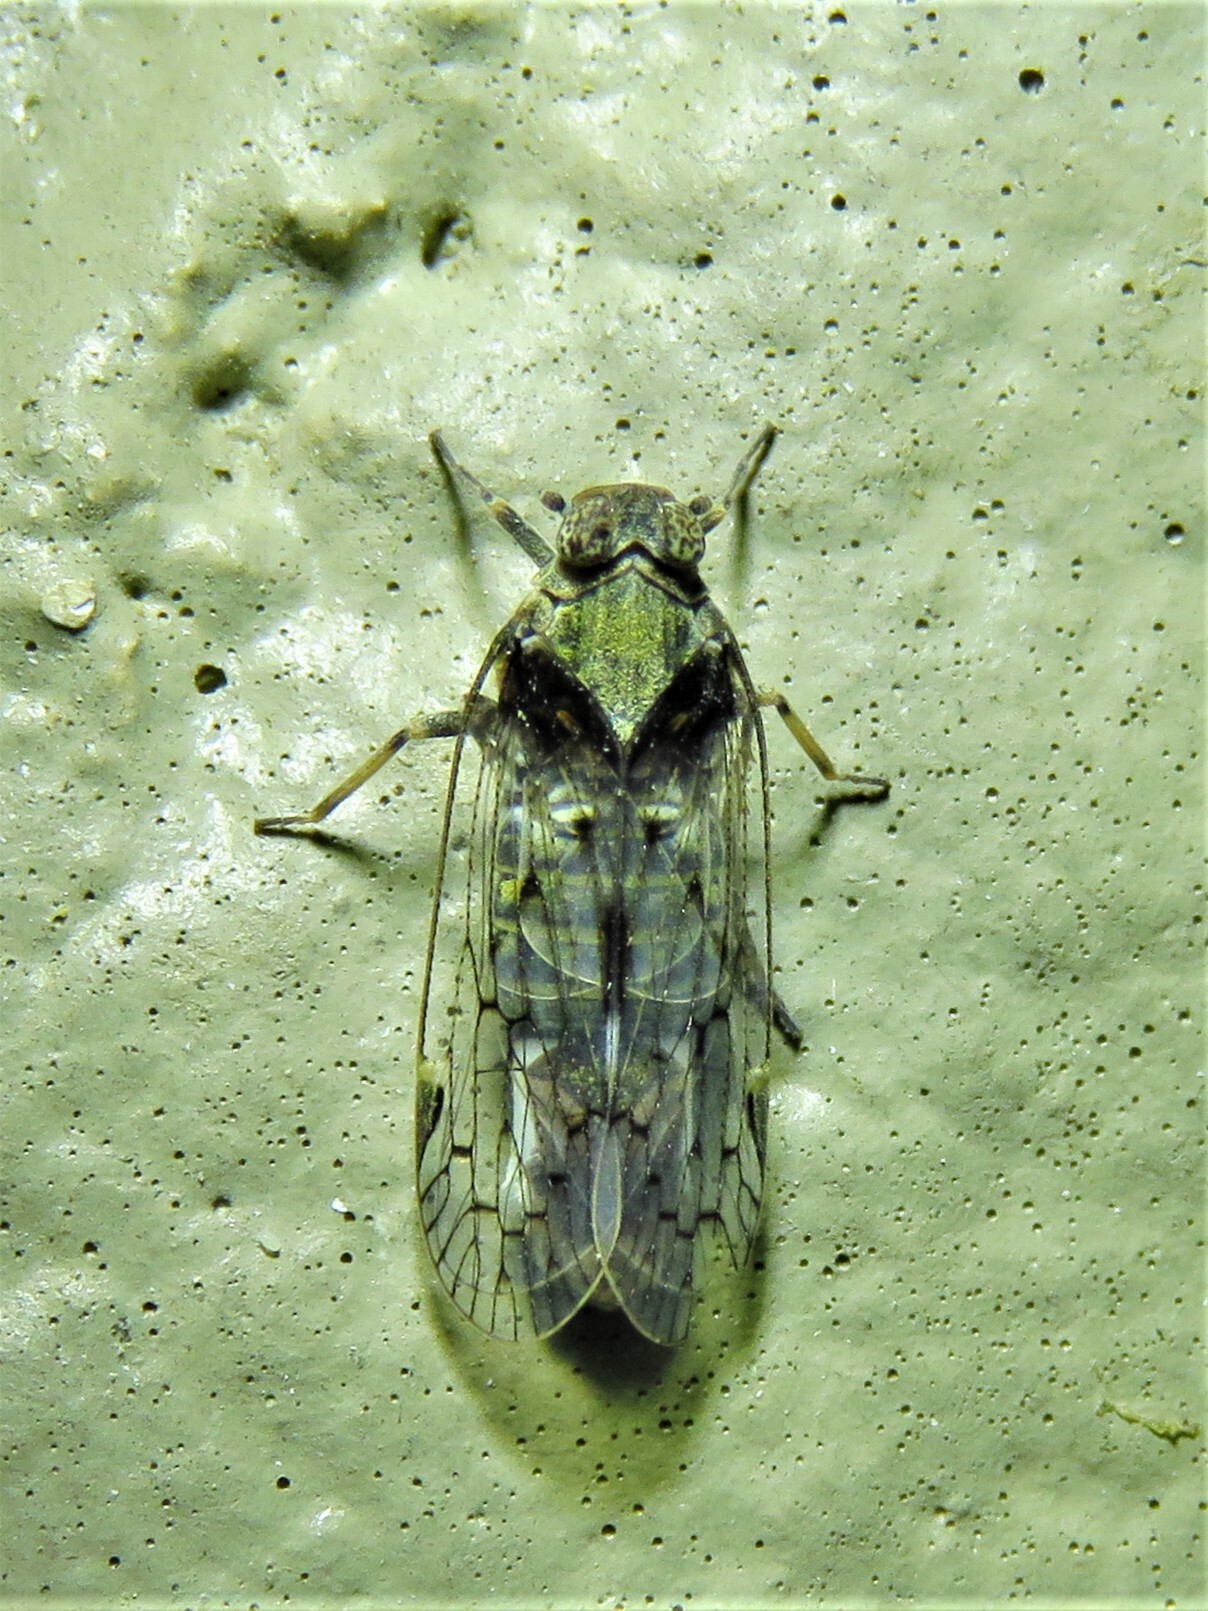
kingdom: Animalia
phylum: Arthropoda
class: Insecta
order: Hemiptera
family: Cixiidae
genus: Melanoliarus
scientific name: Melanoliarus aridus
